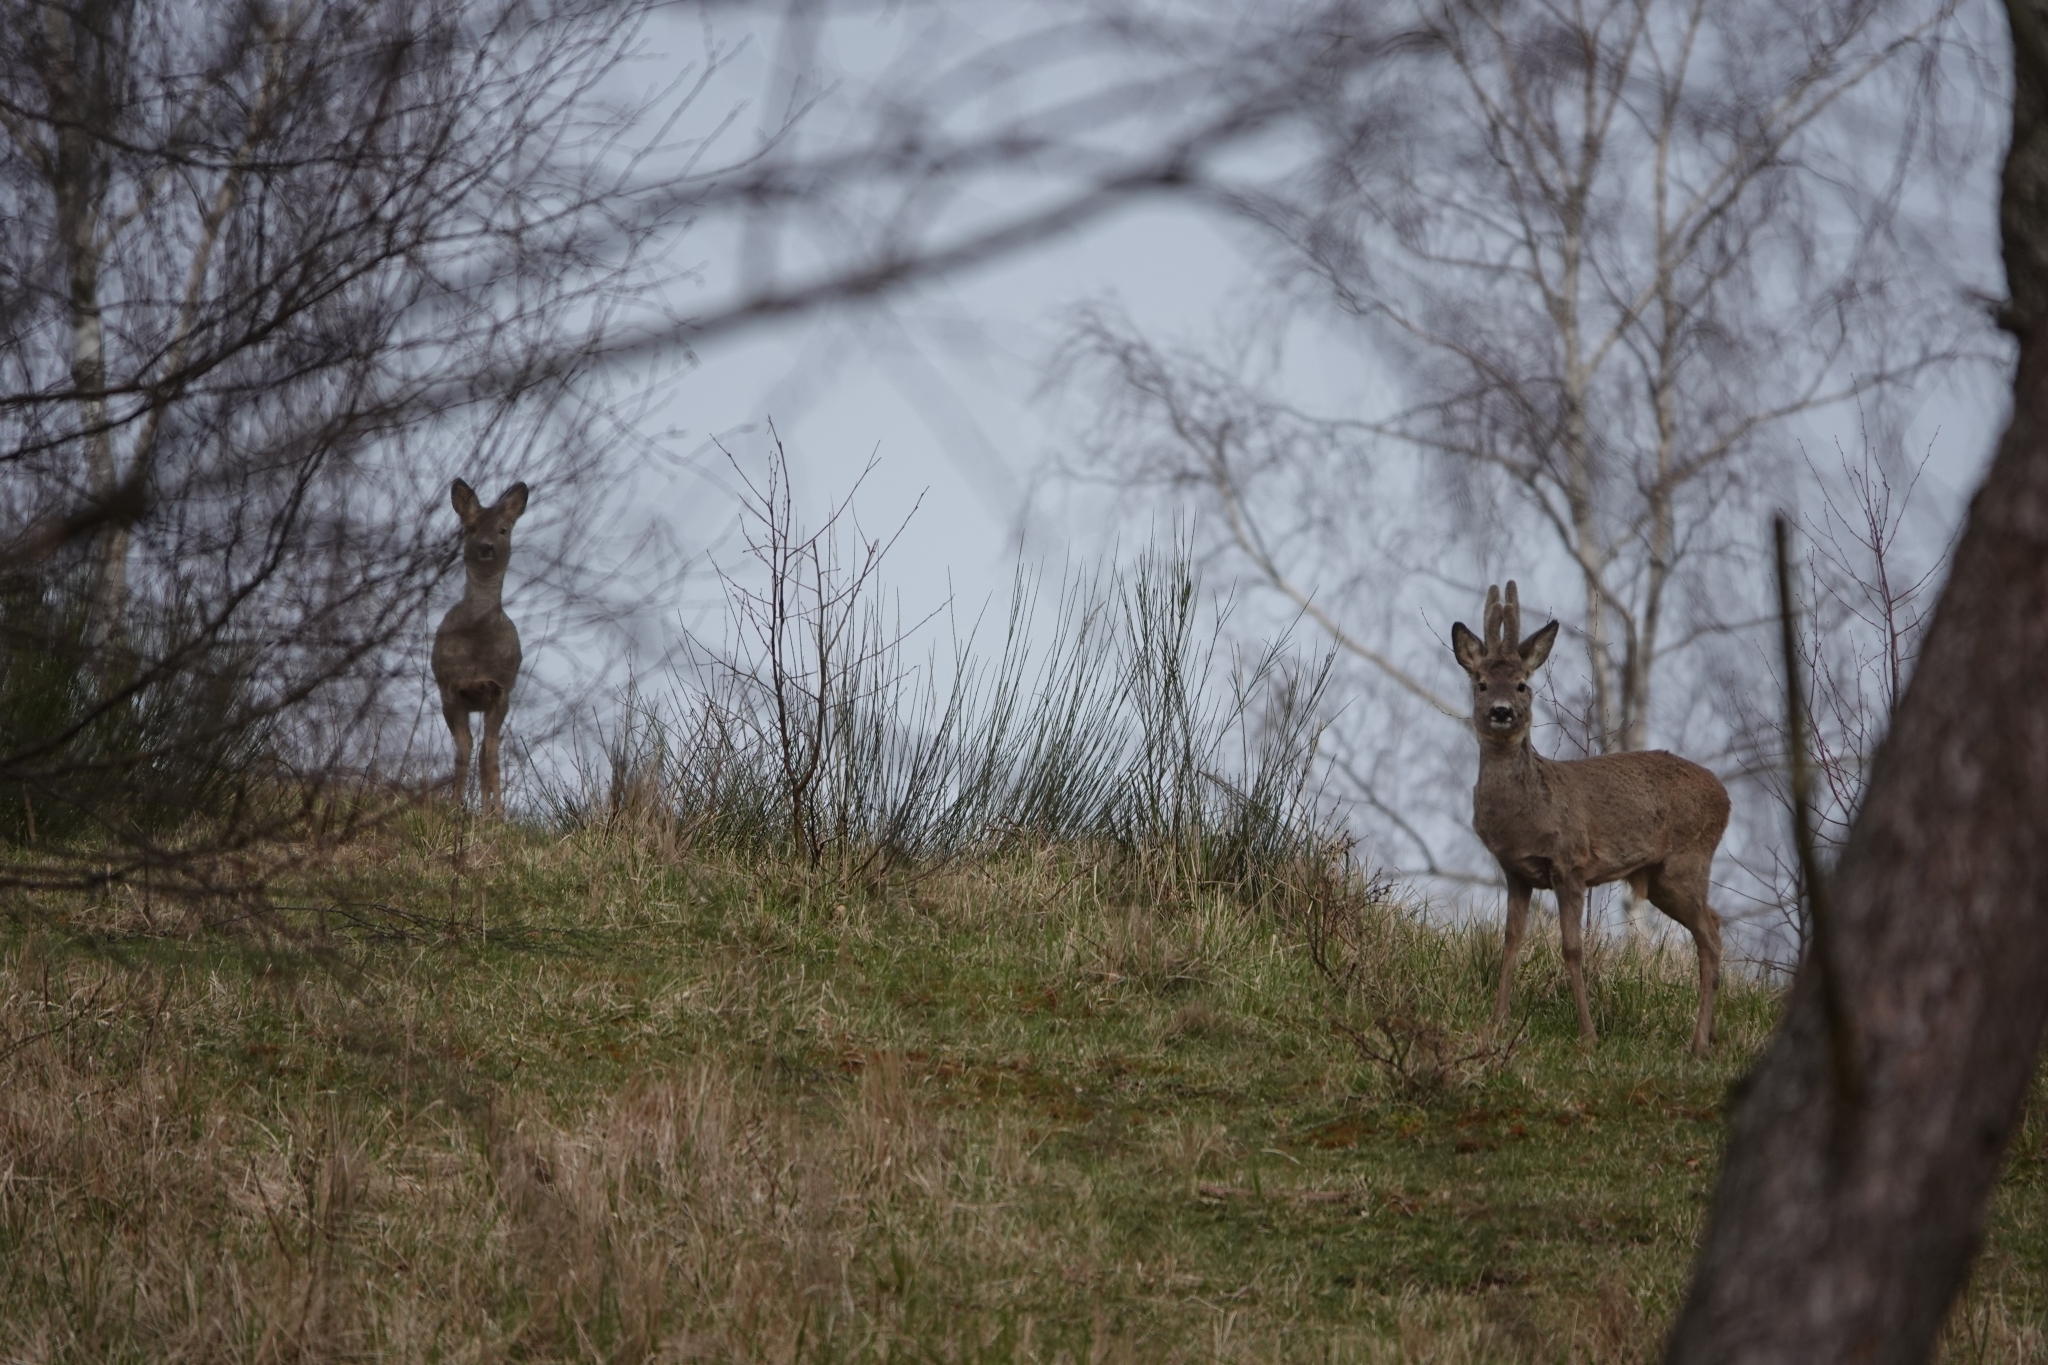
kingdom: Animalia
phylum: Chordata
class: Mammalia
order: Artiodactyla
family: Cervidae
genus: Capreolus
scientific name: Capreolus capreolus
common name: Western roe deer
